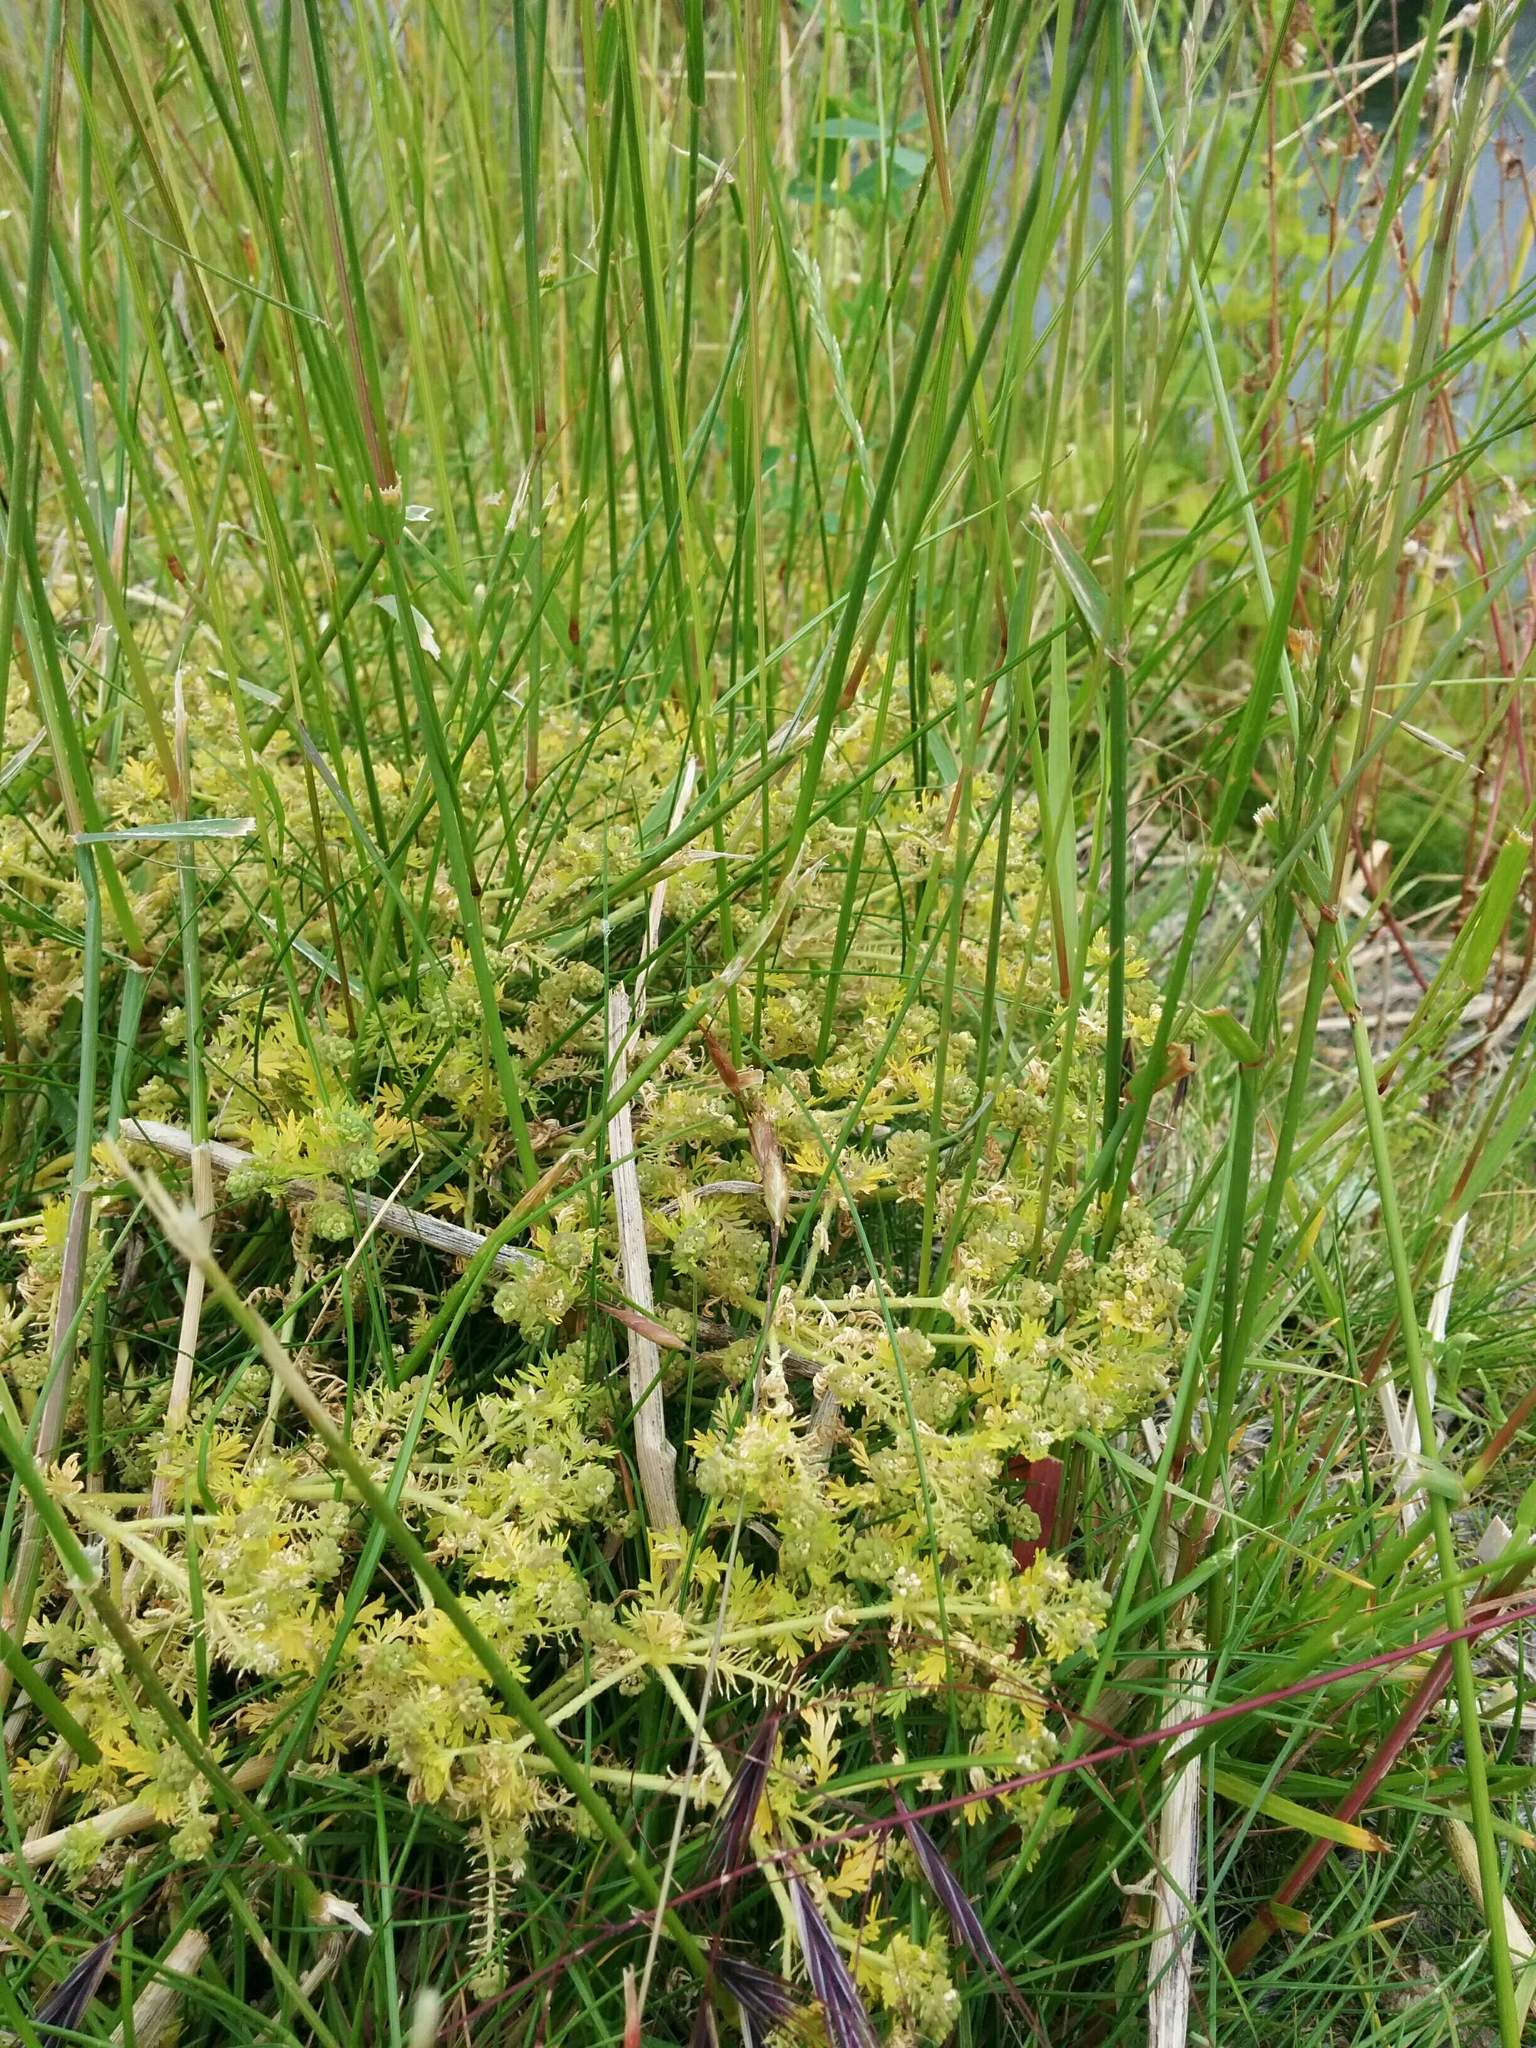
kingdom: Plantae
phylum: Tracheophyta
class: Magnoliopsida
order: Brassicales
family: Brassicaceae
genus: Lepidium
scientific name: Lepidium didymum
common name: Lesser swinecress
